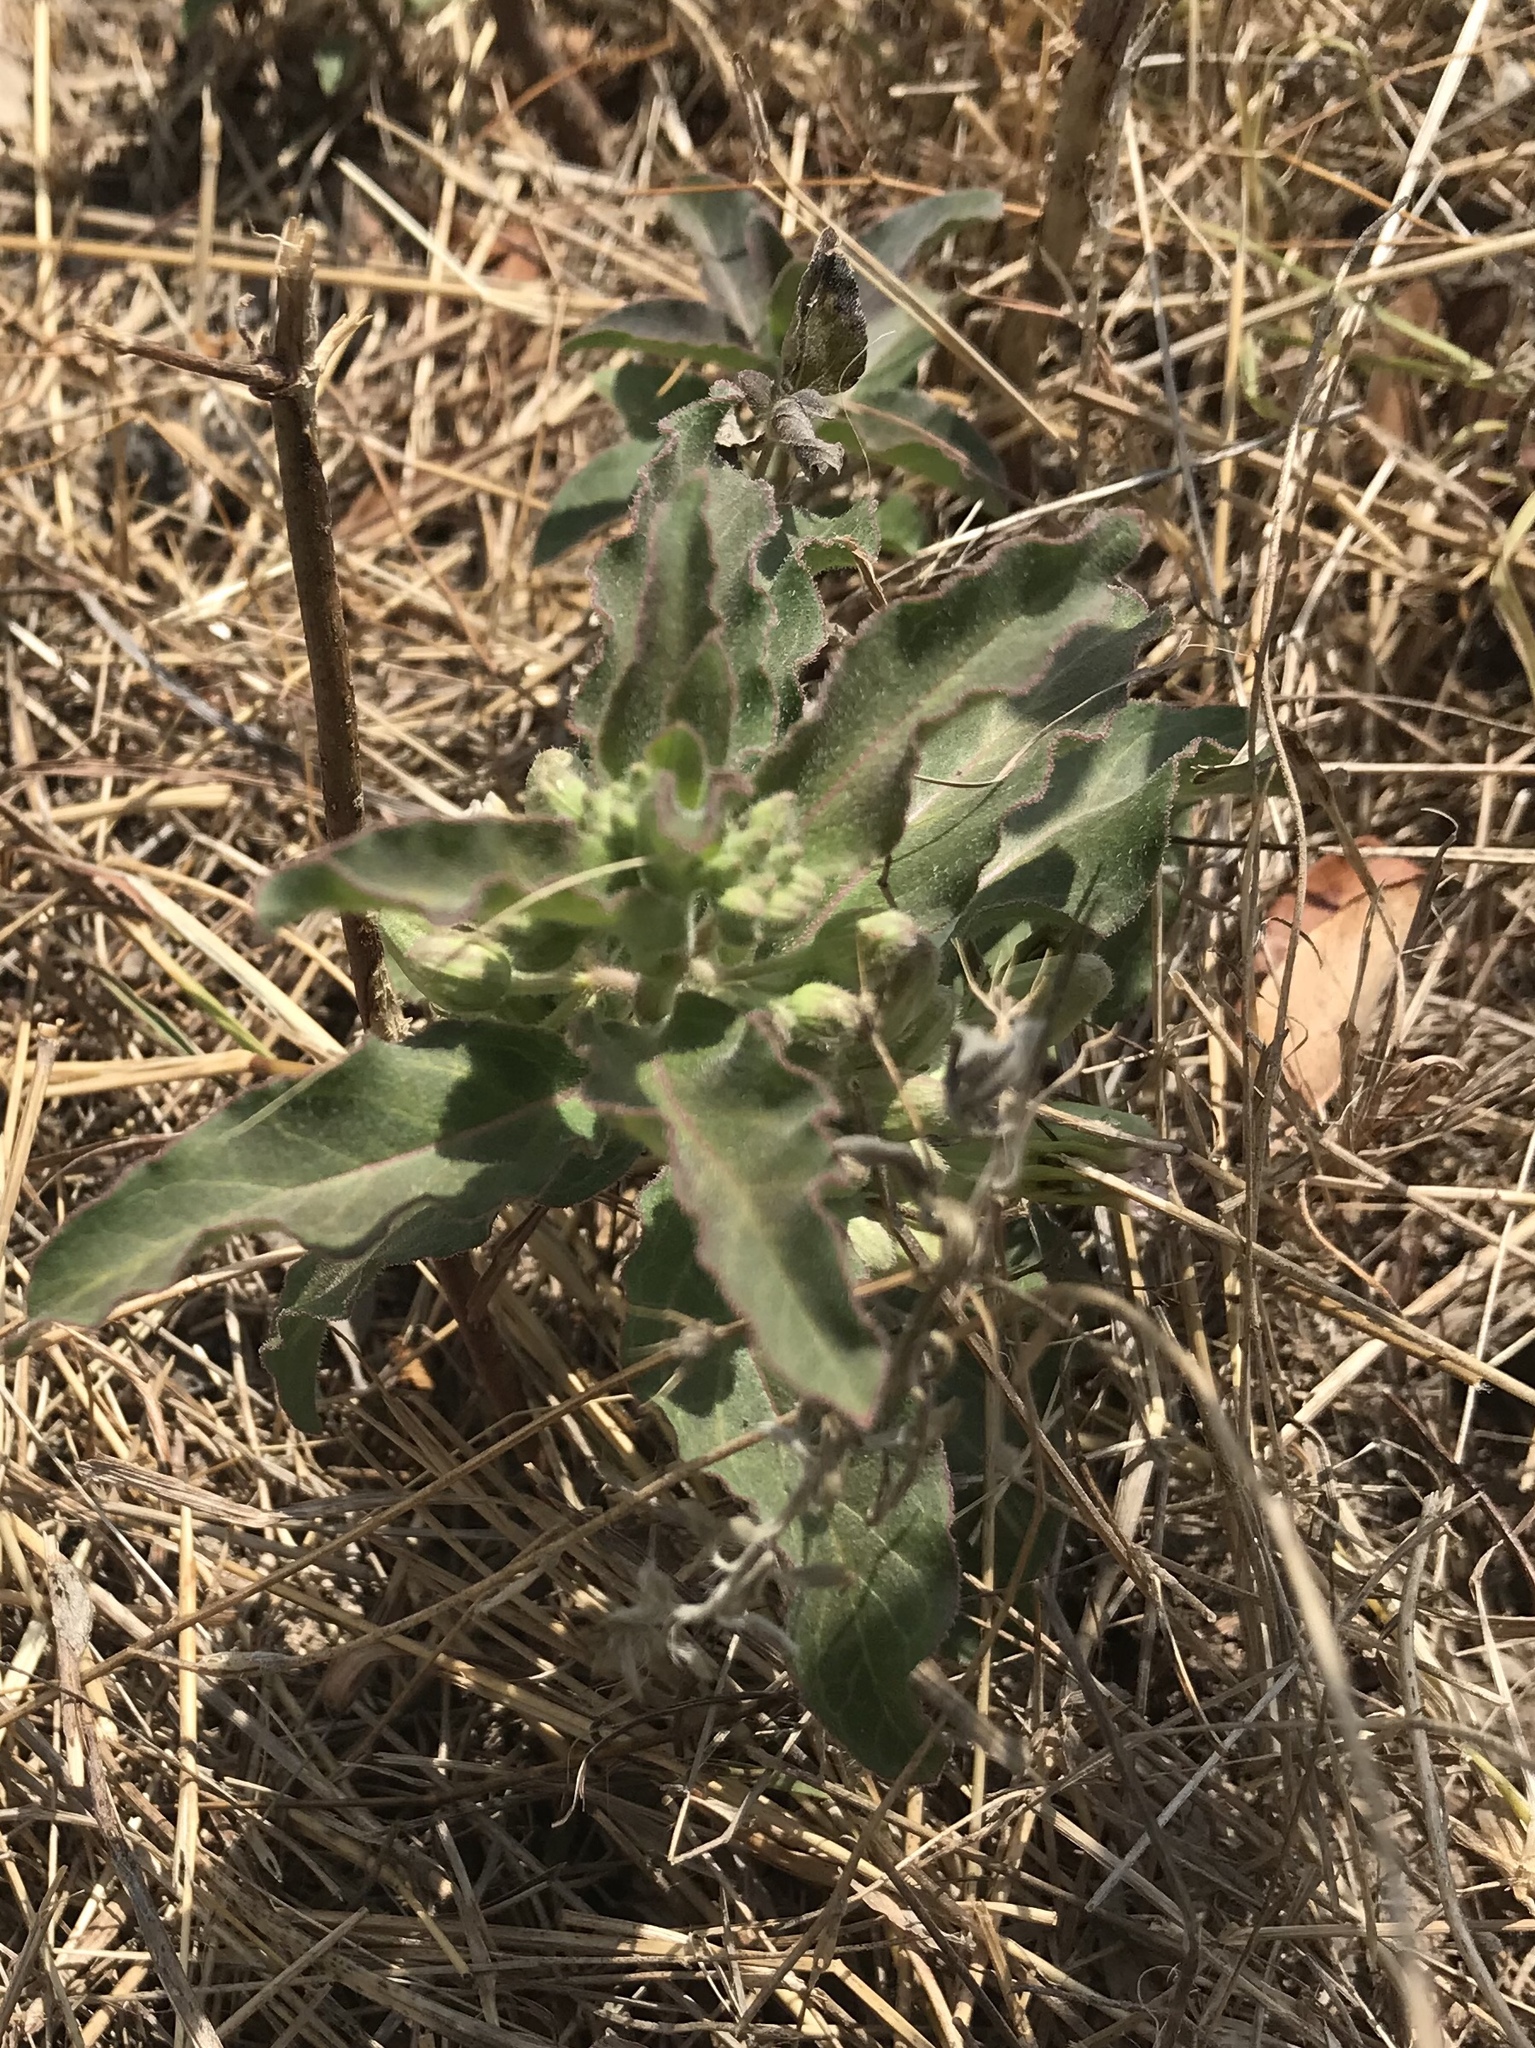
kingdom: Plantae
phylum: Tracheophyta
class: Magnoliopsida
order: Gentianales
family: Apocynaceae
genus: Asclepias
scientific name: Asclepias oenotheroides
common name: Zizotes milkweed
